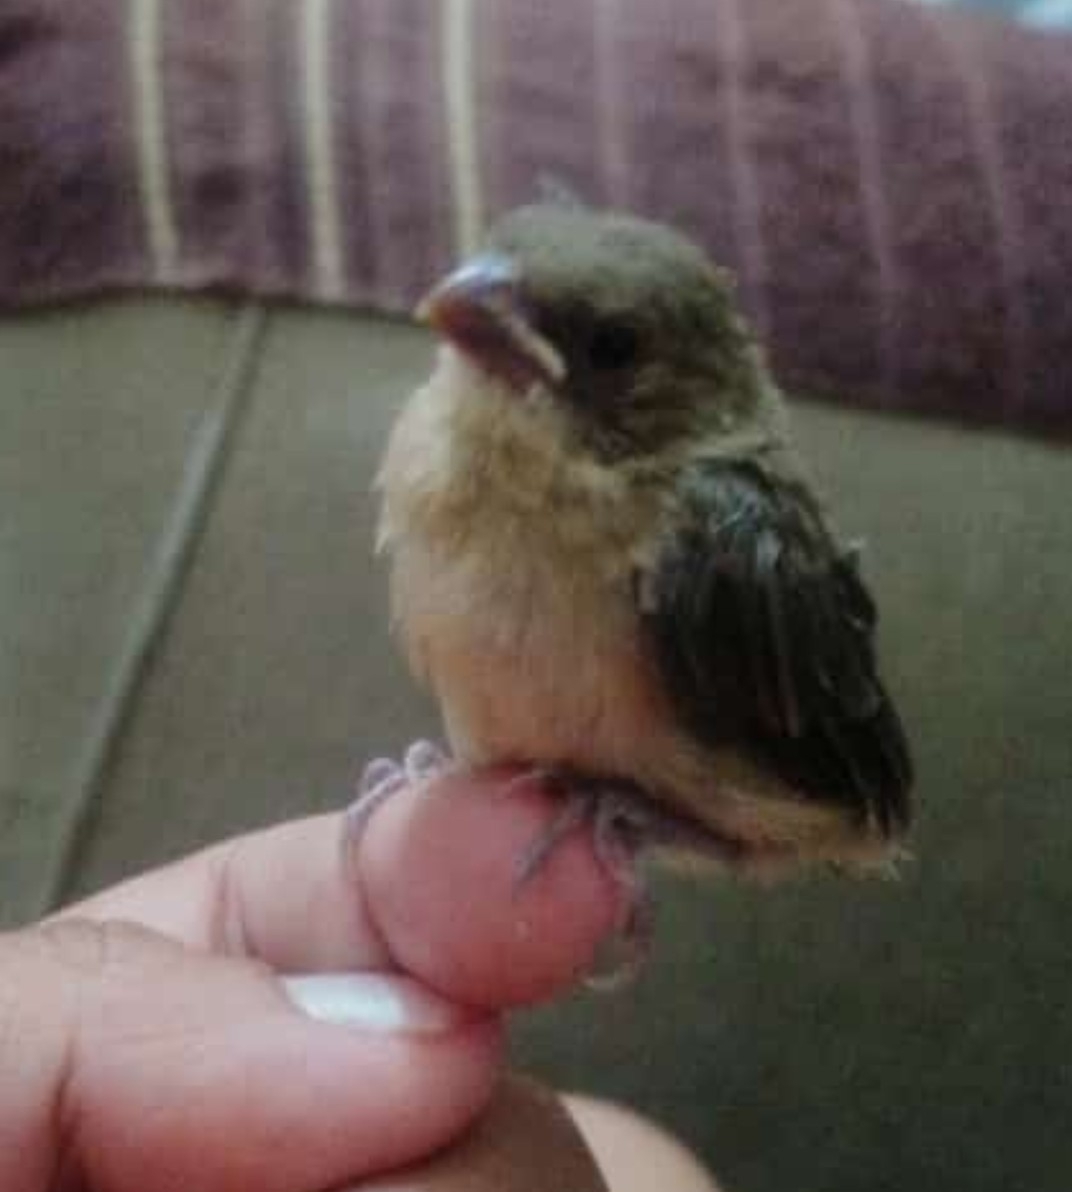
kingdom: Animalia
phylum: Chordata
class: Aves
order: Passeriformes
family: Thraupidae
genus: Sporophila
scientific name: Sporophila torqueola
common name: White-collared seedeater
